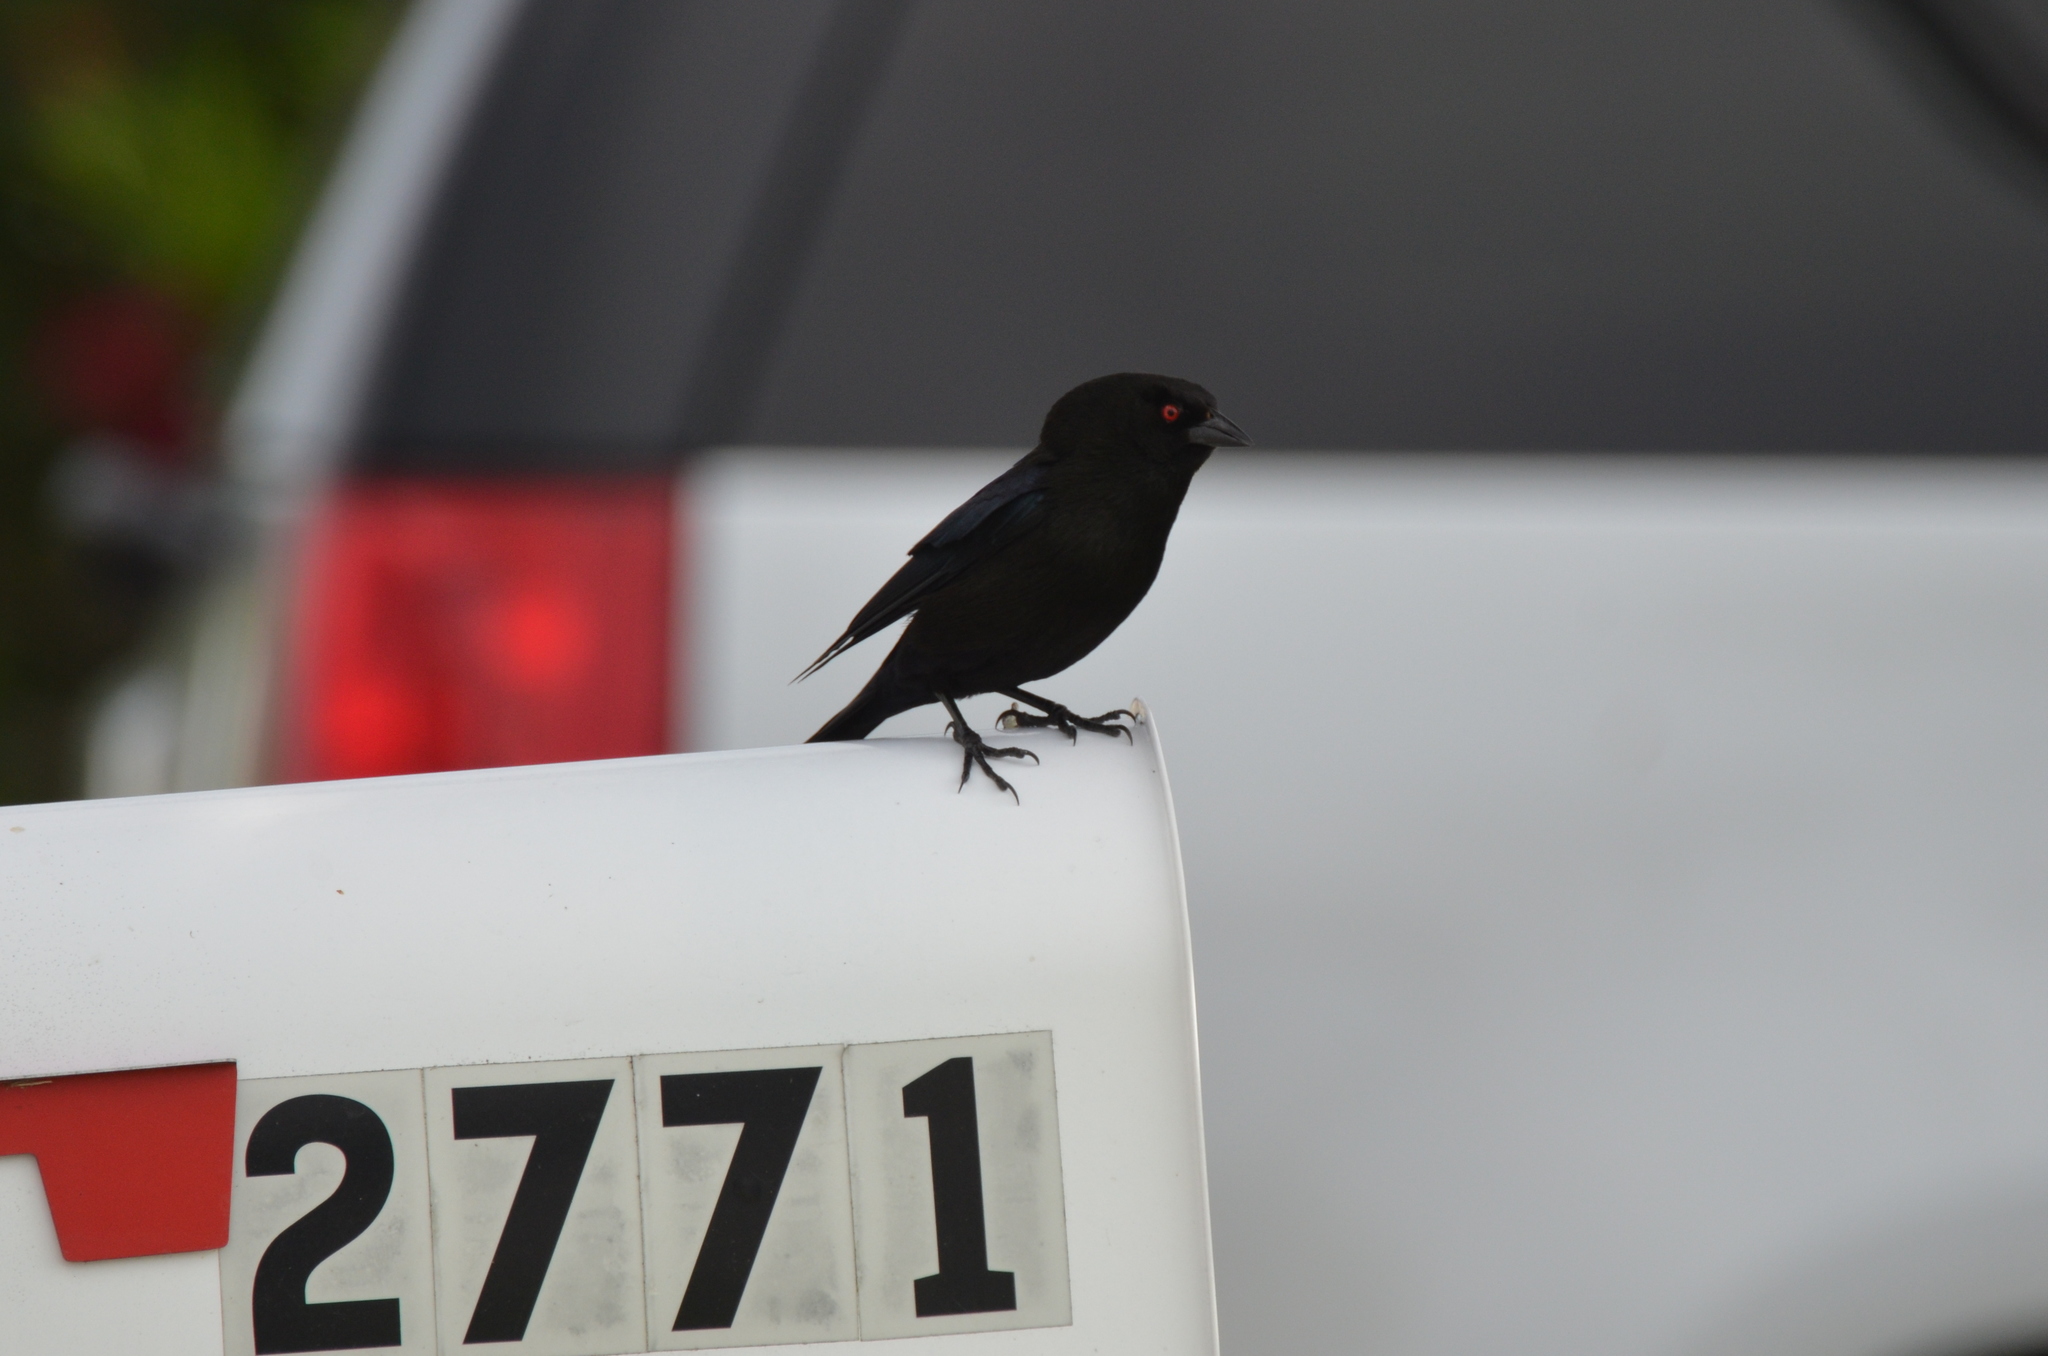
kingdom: Animalia
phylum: Chordata
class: Aves
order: Passeriformes
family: Icteridae
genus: Molothrus
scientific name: Molothrus aeneus
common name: Bronzed cowbird
